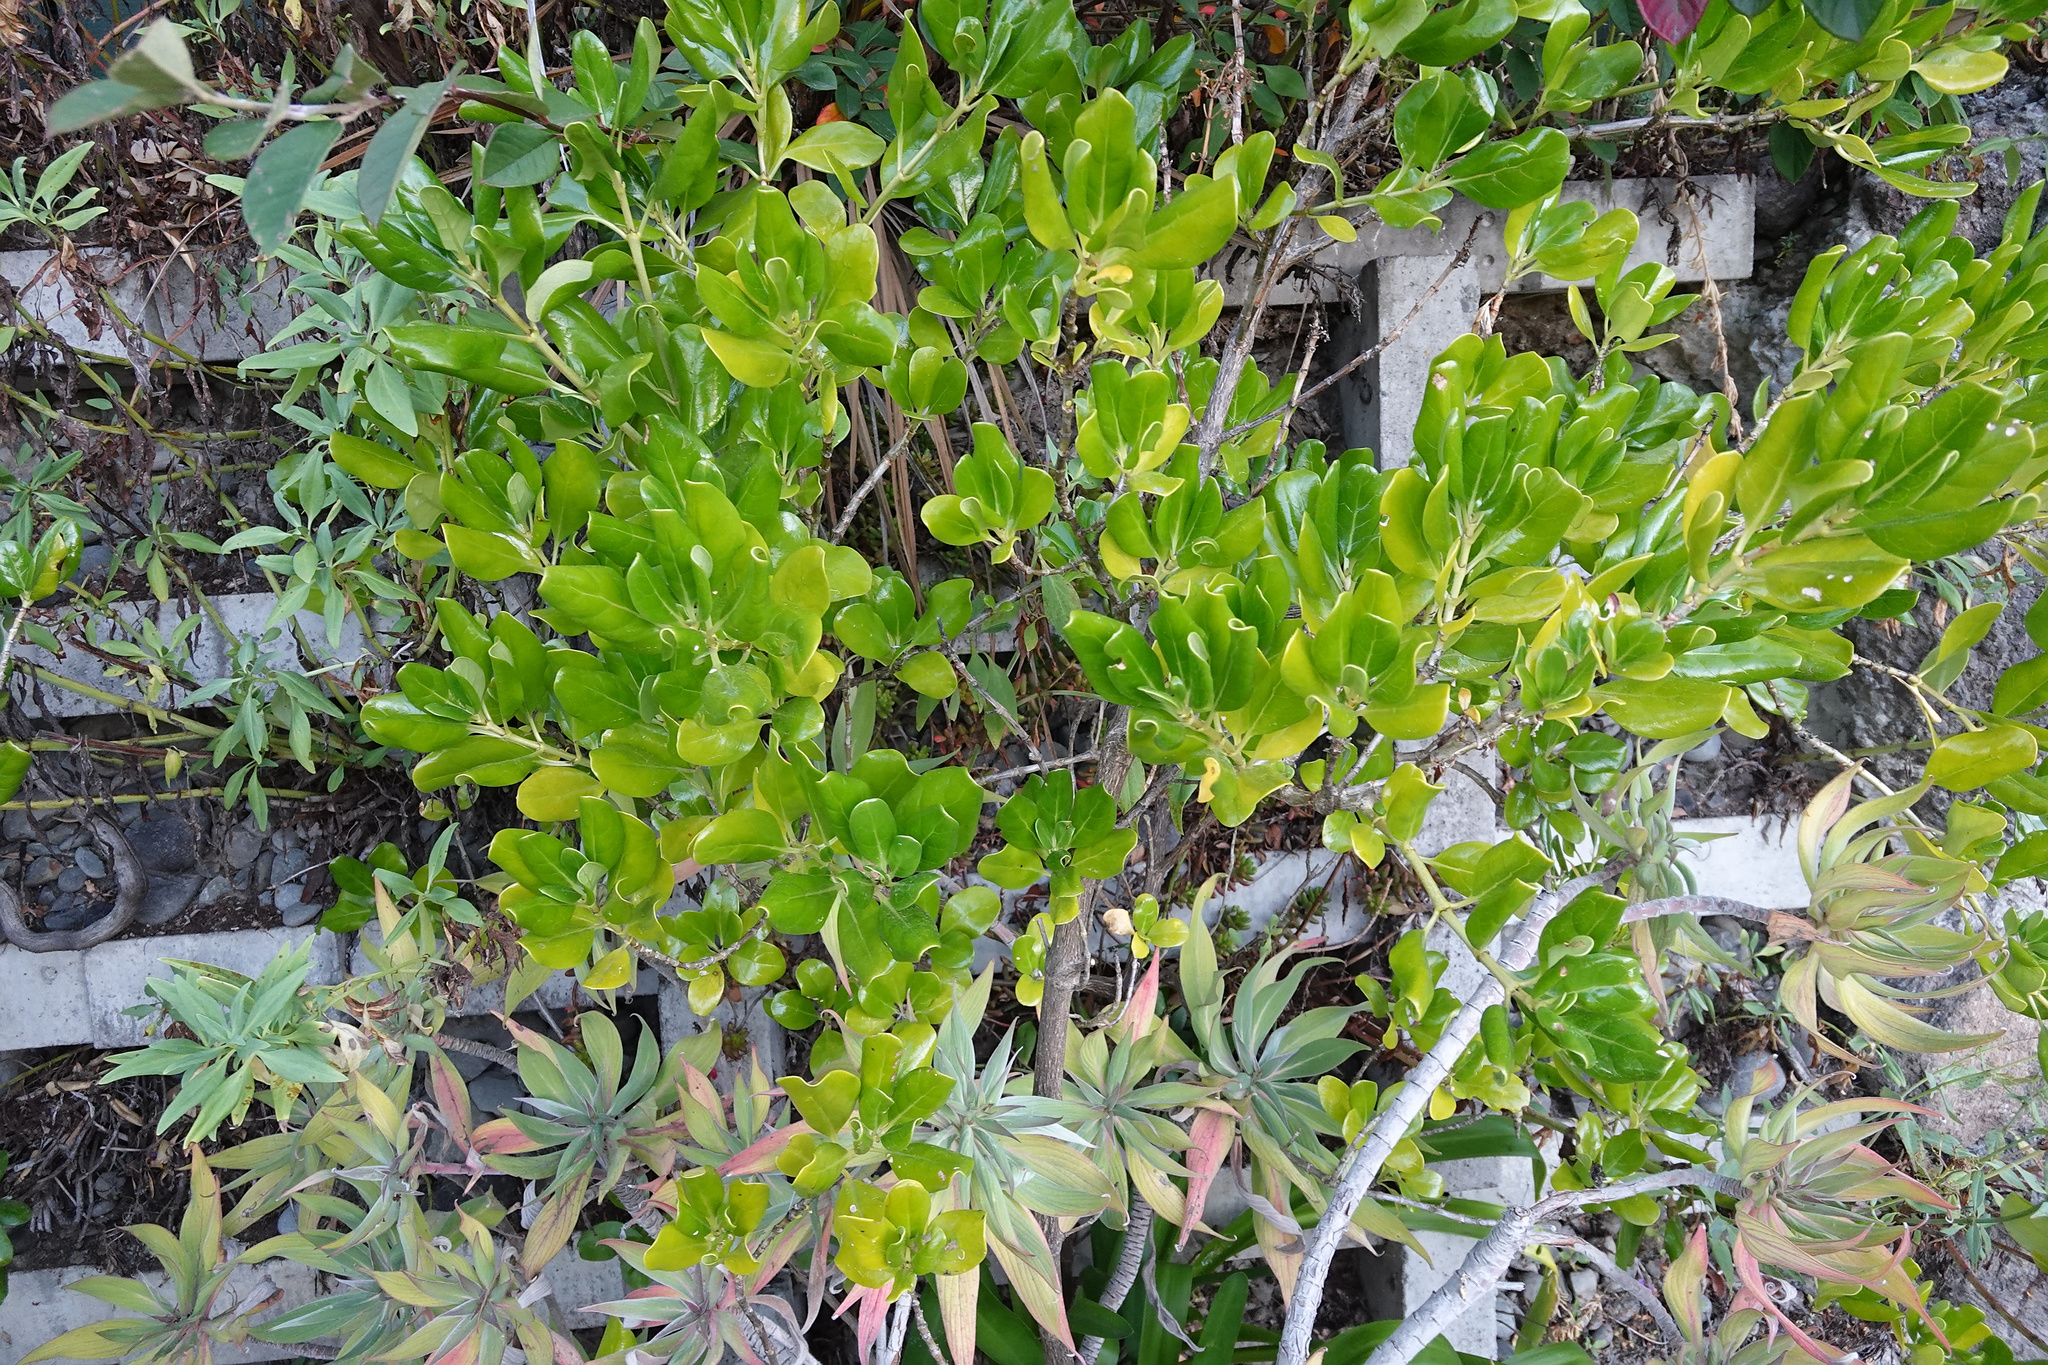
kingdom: Plantae
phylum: Tracheophyta
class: Magnoliopsida
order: Gentianales
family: Rubiaceae
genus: Coprosma
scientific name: Coprosma repens
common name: Tree bedstraw
